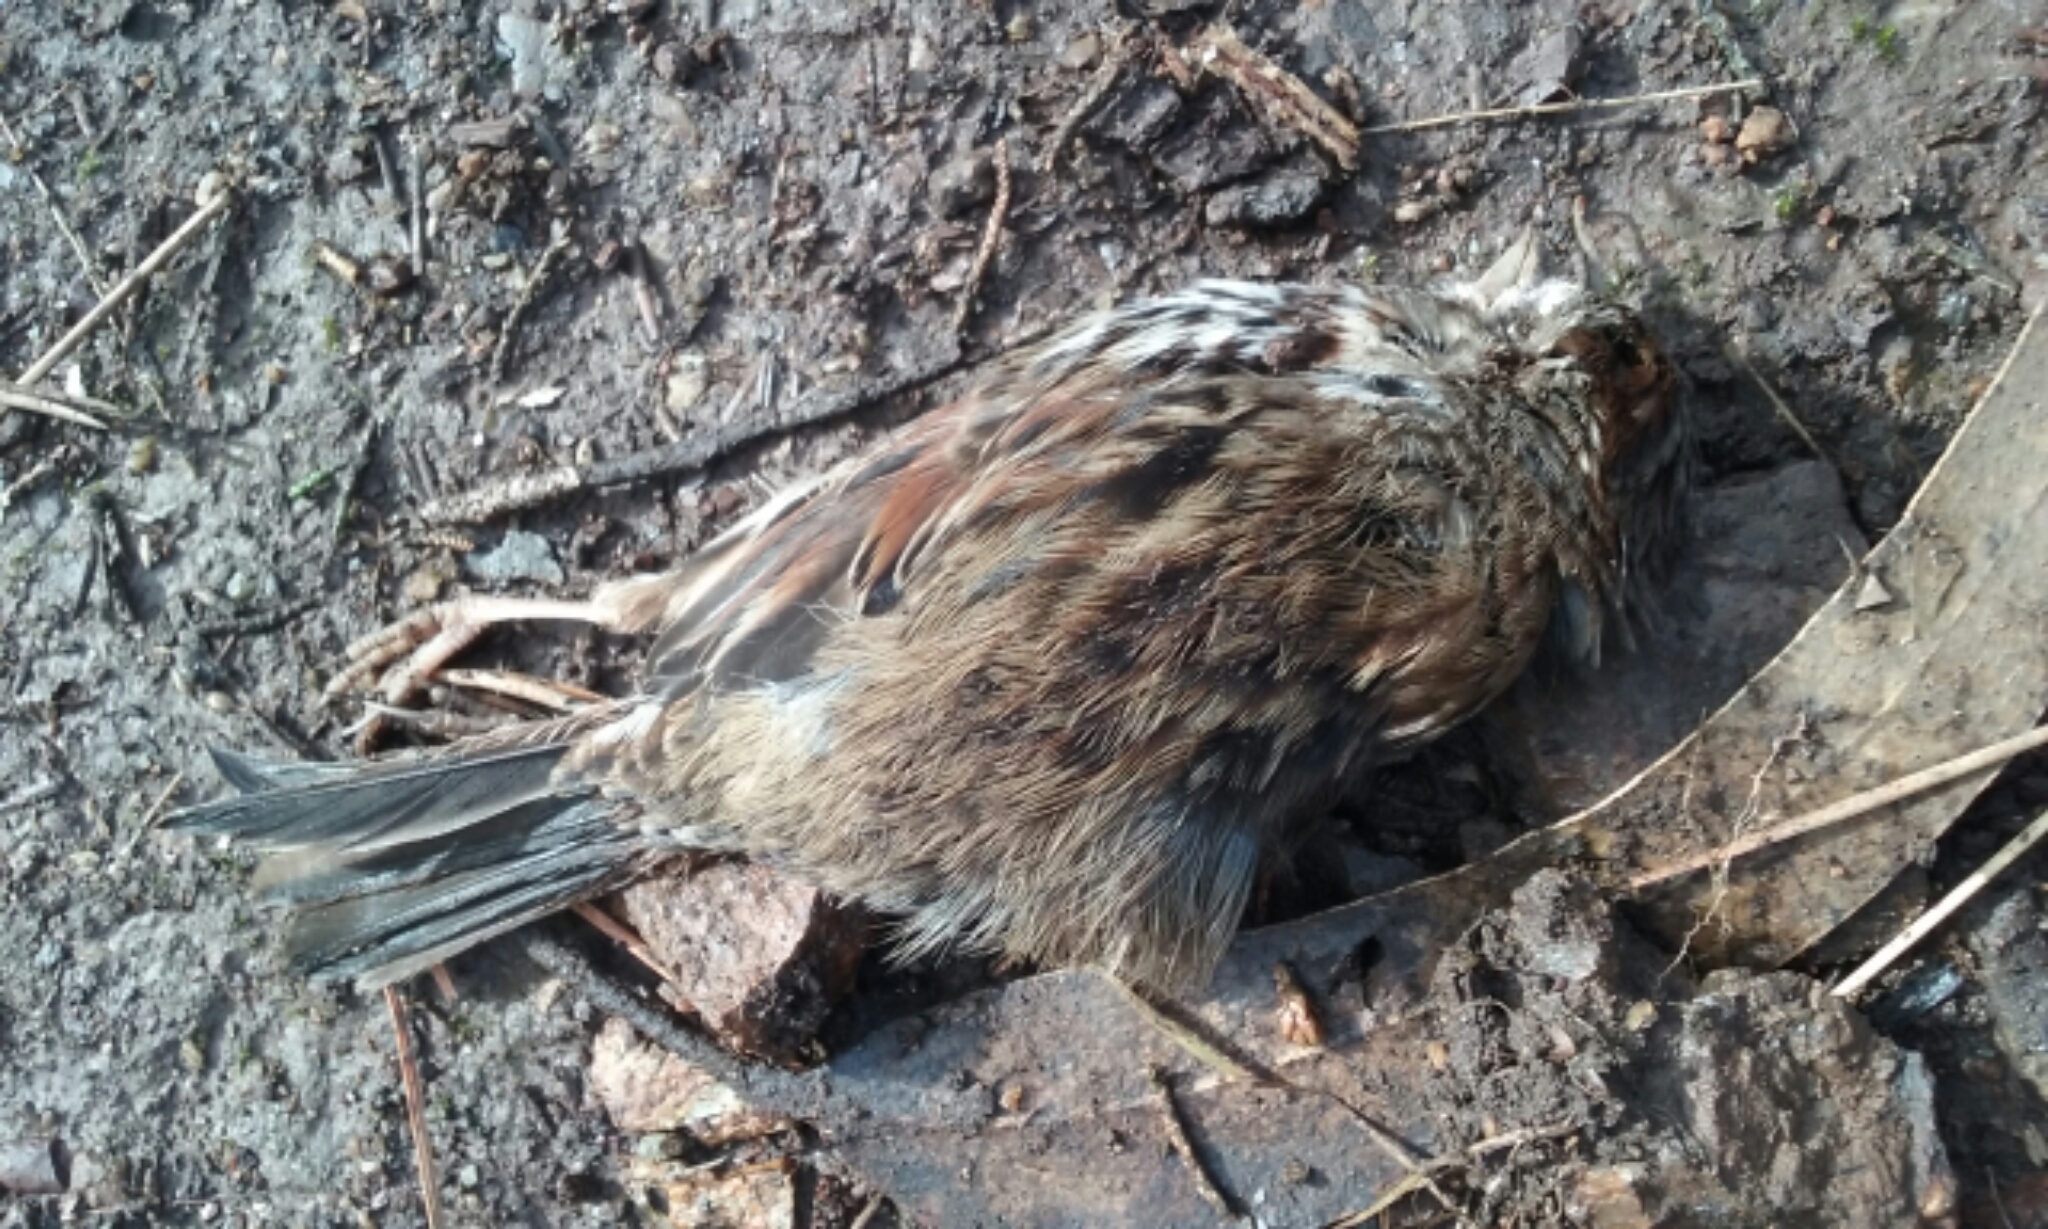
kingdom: Animalia
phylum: Chordata
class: Aves
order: Passeriformes
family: Passerellidae
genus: Melospiza
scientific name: Melospiza melodia
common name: Song sparrow
